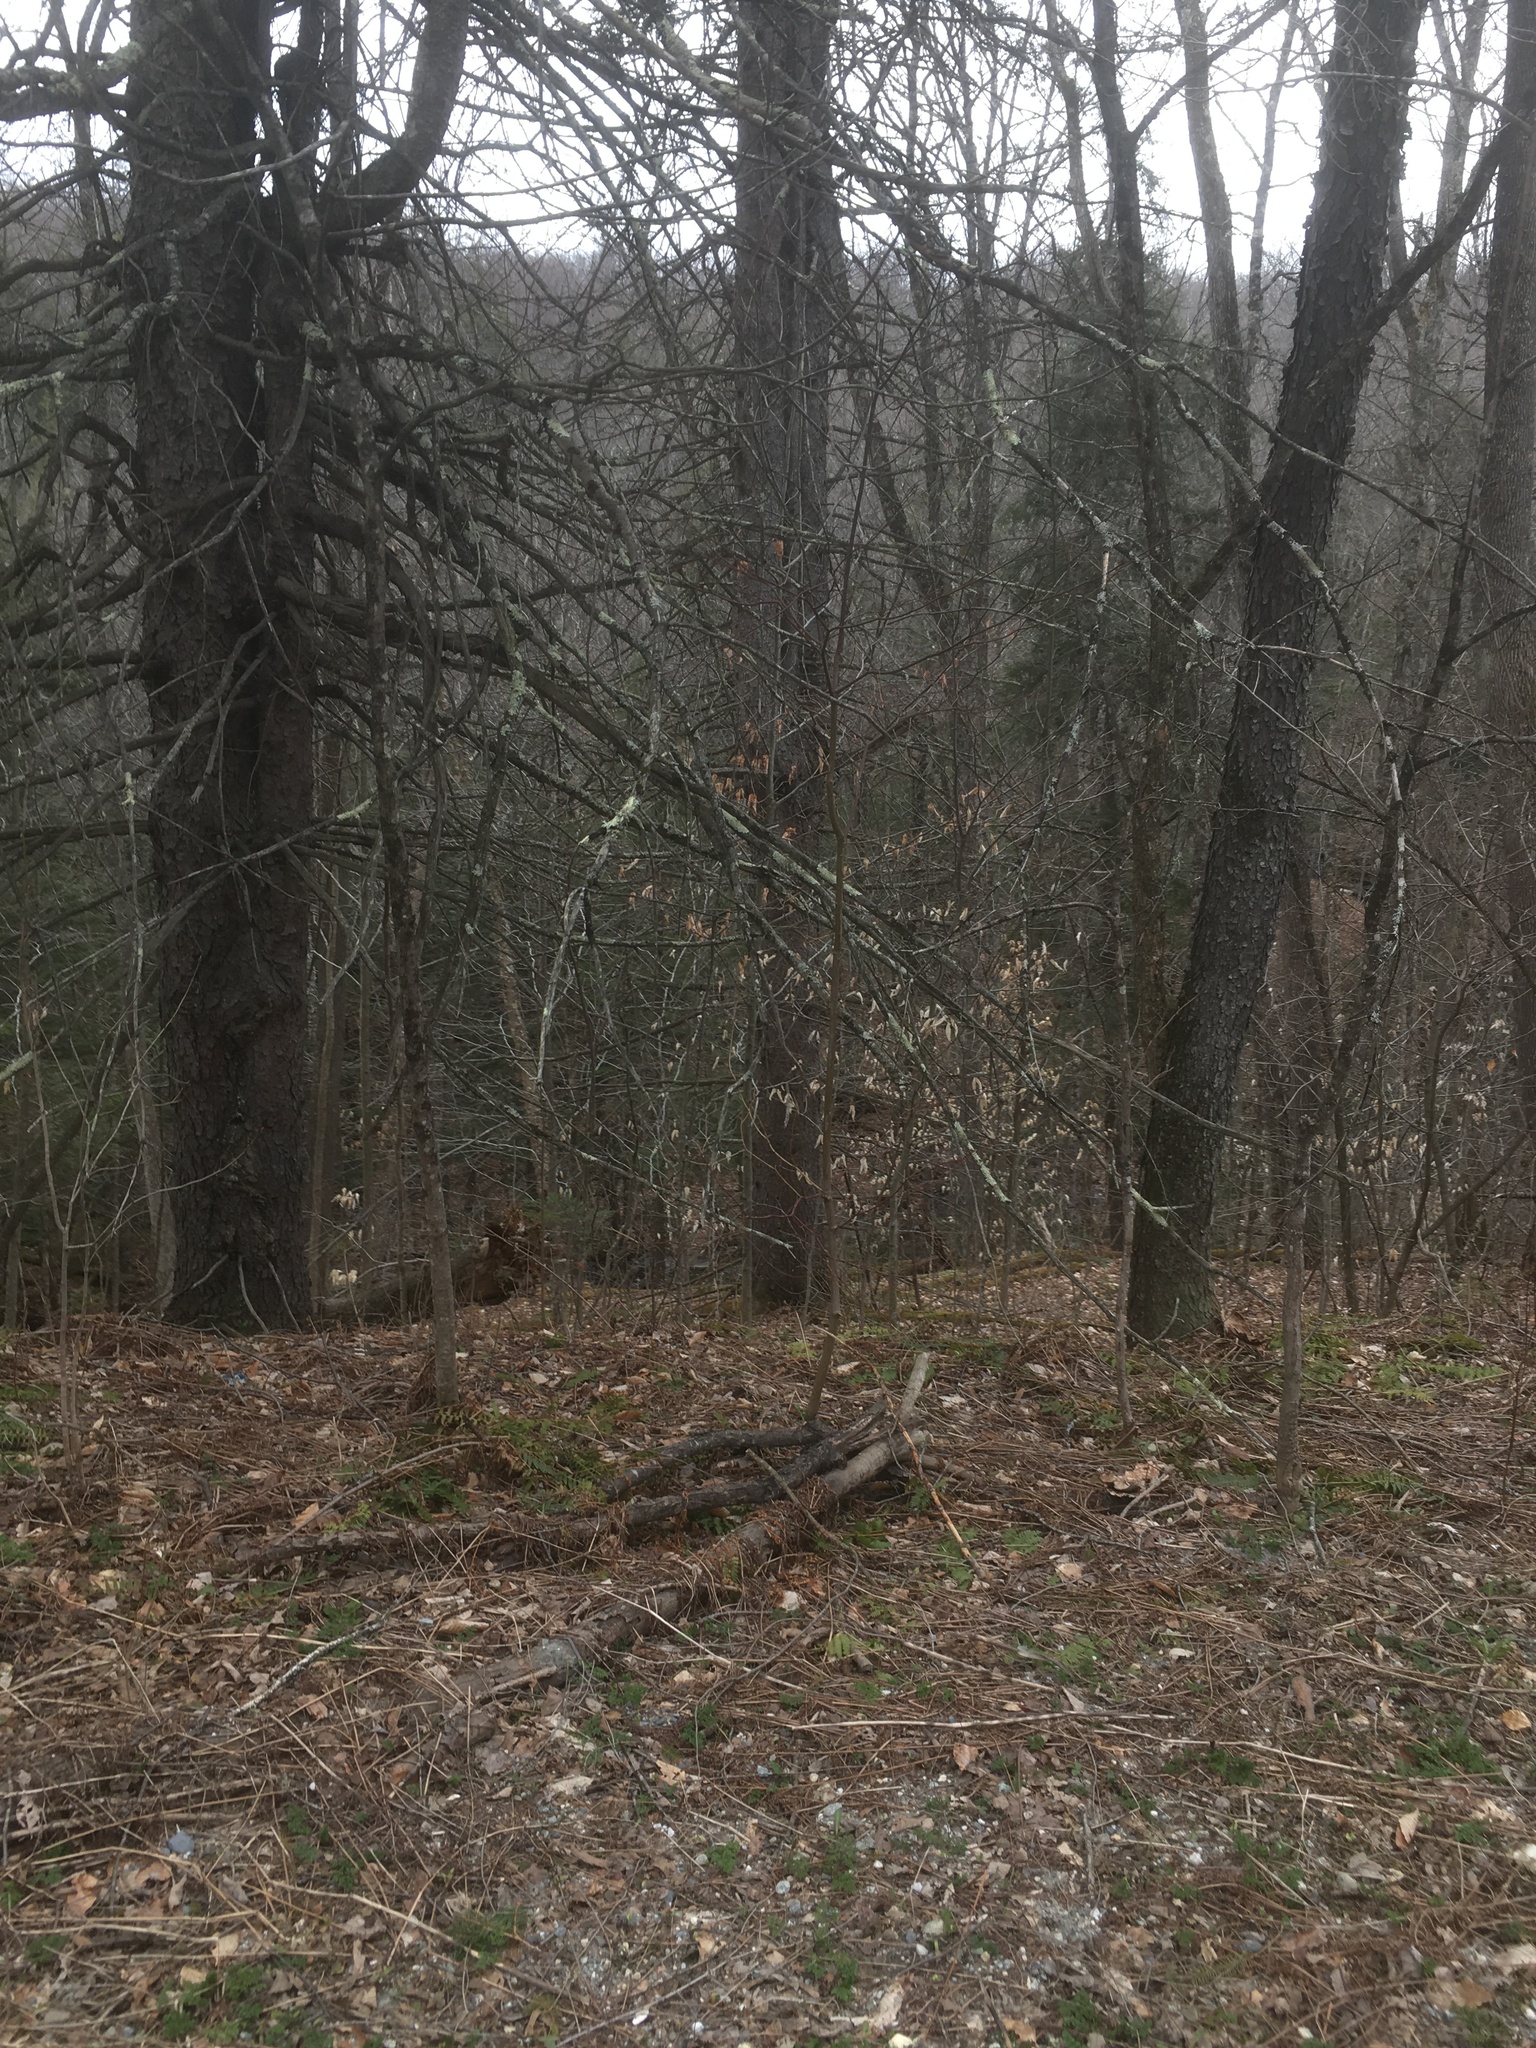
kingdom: Plantae
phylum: Tracheophyta
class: Magnoliopsida
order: Fagales
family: Fagaceae
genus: Fagus
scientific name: Fagus grandifolia
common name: American beech
